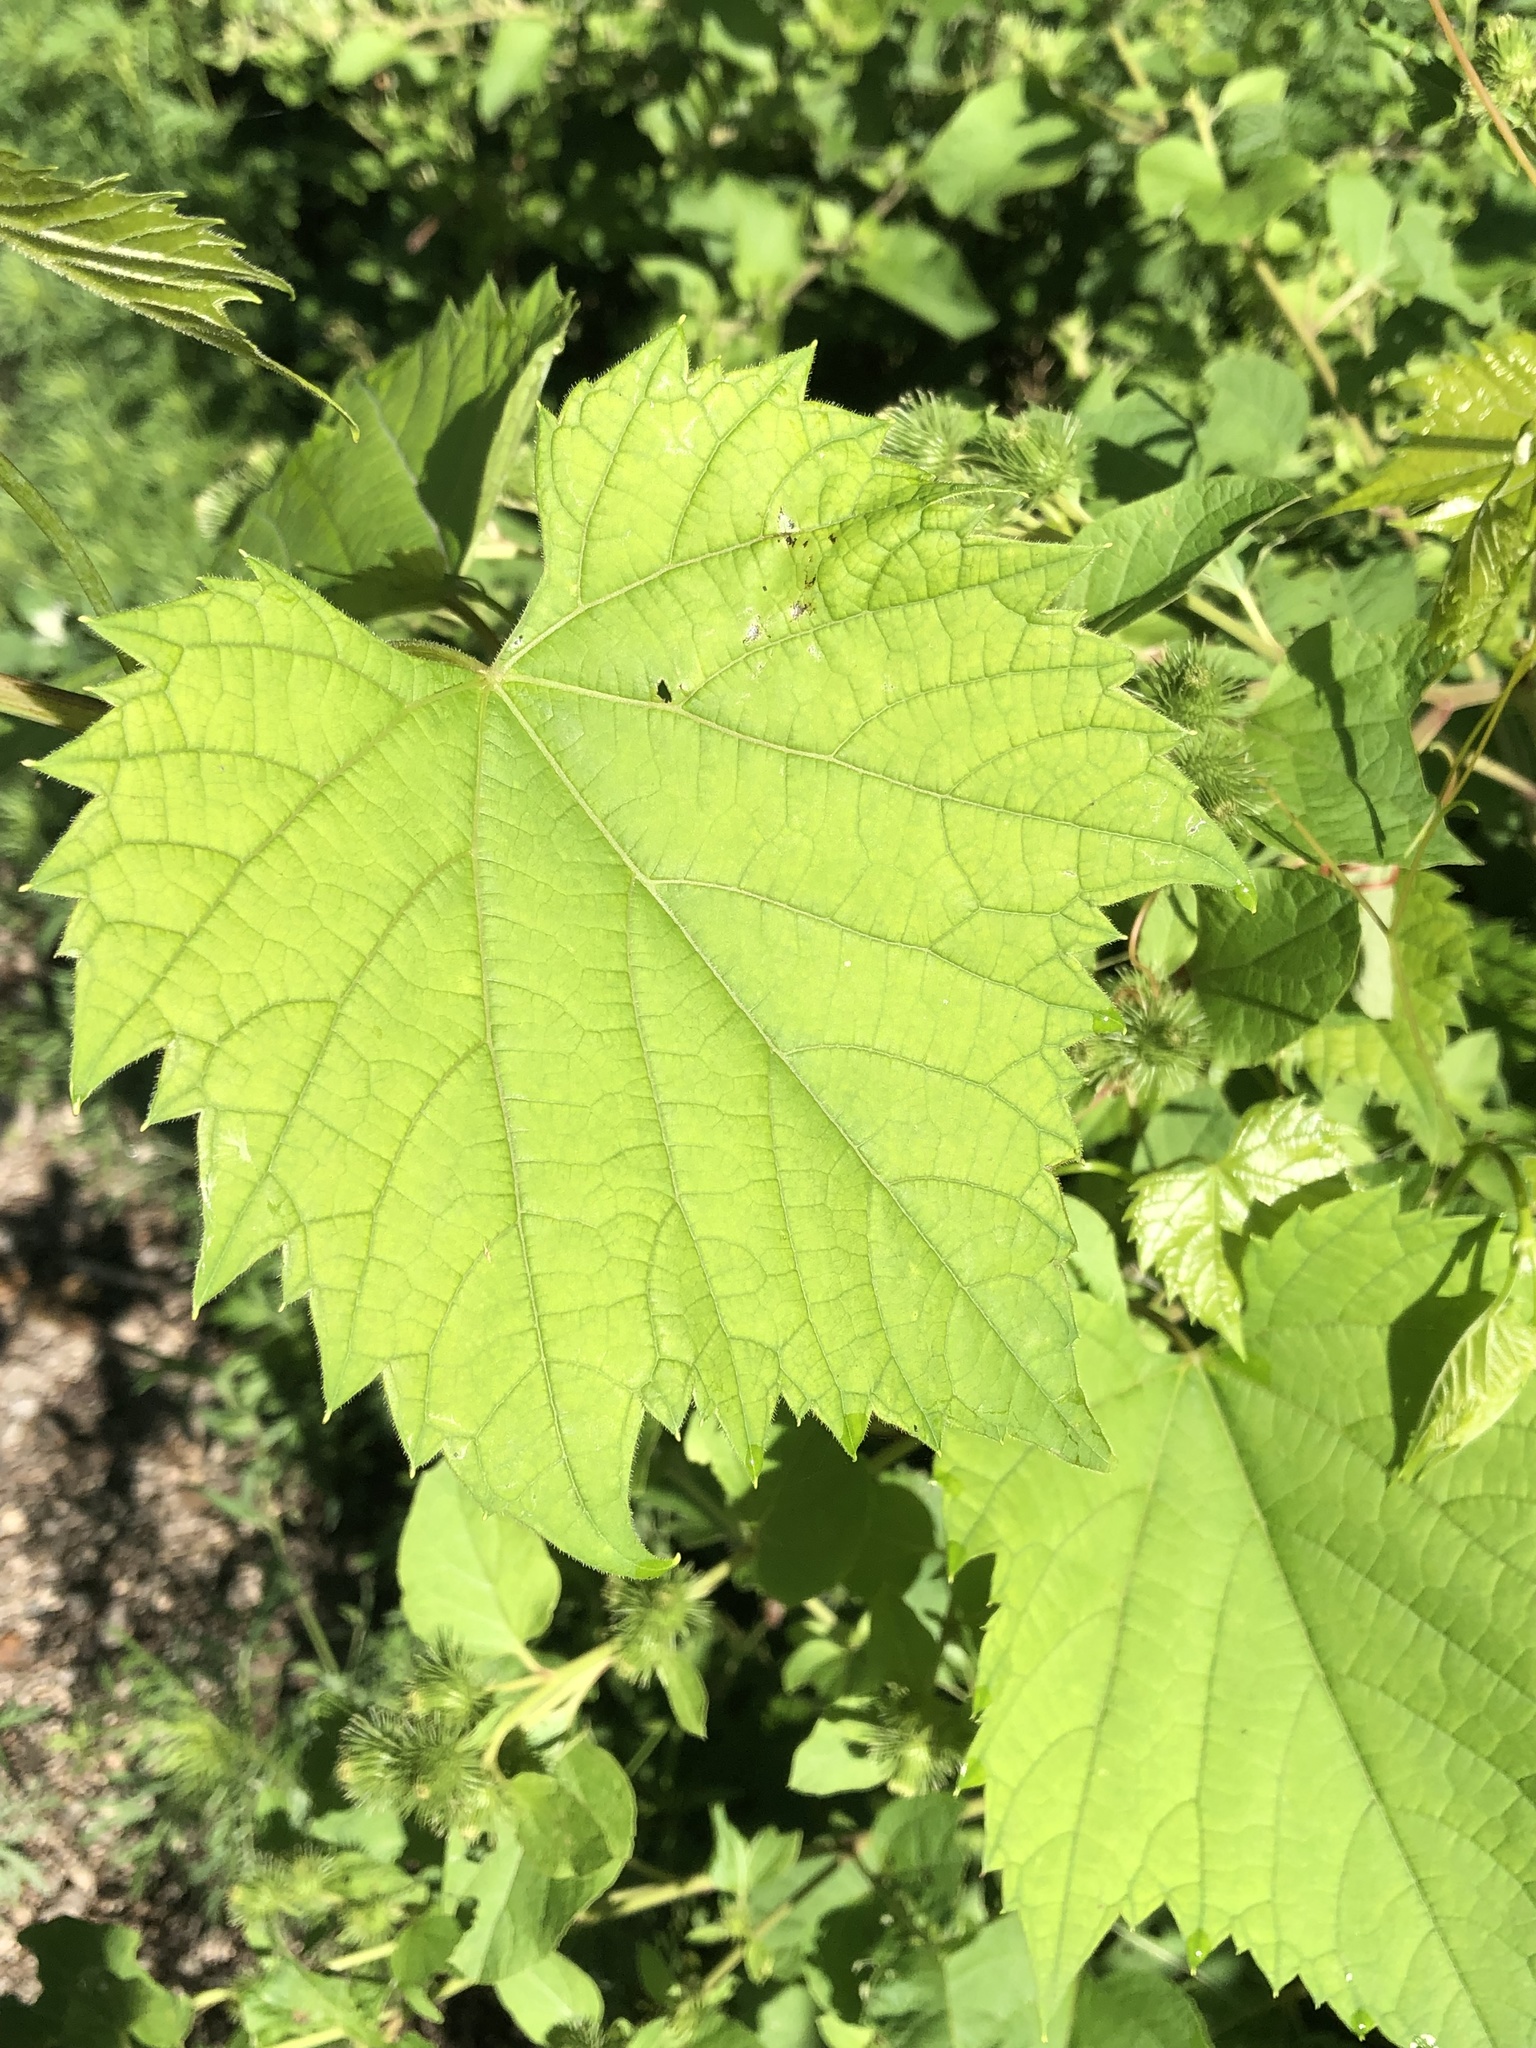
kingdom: Plantae
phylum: Tracheophyta
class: Magnoliopsida
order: Vitales
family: Vitaceae
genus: Vitis
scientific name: Vitis riparia
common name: Frost grape
